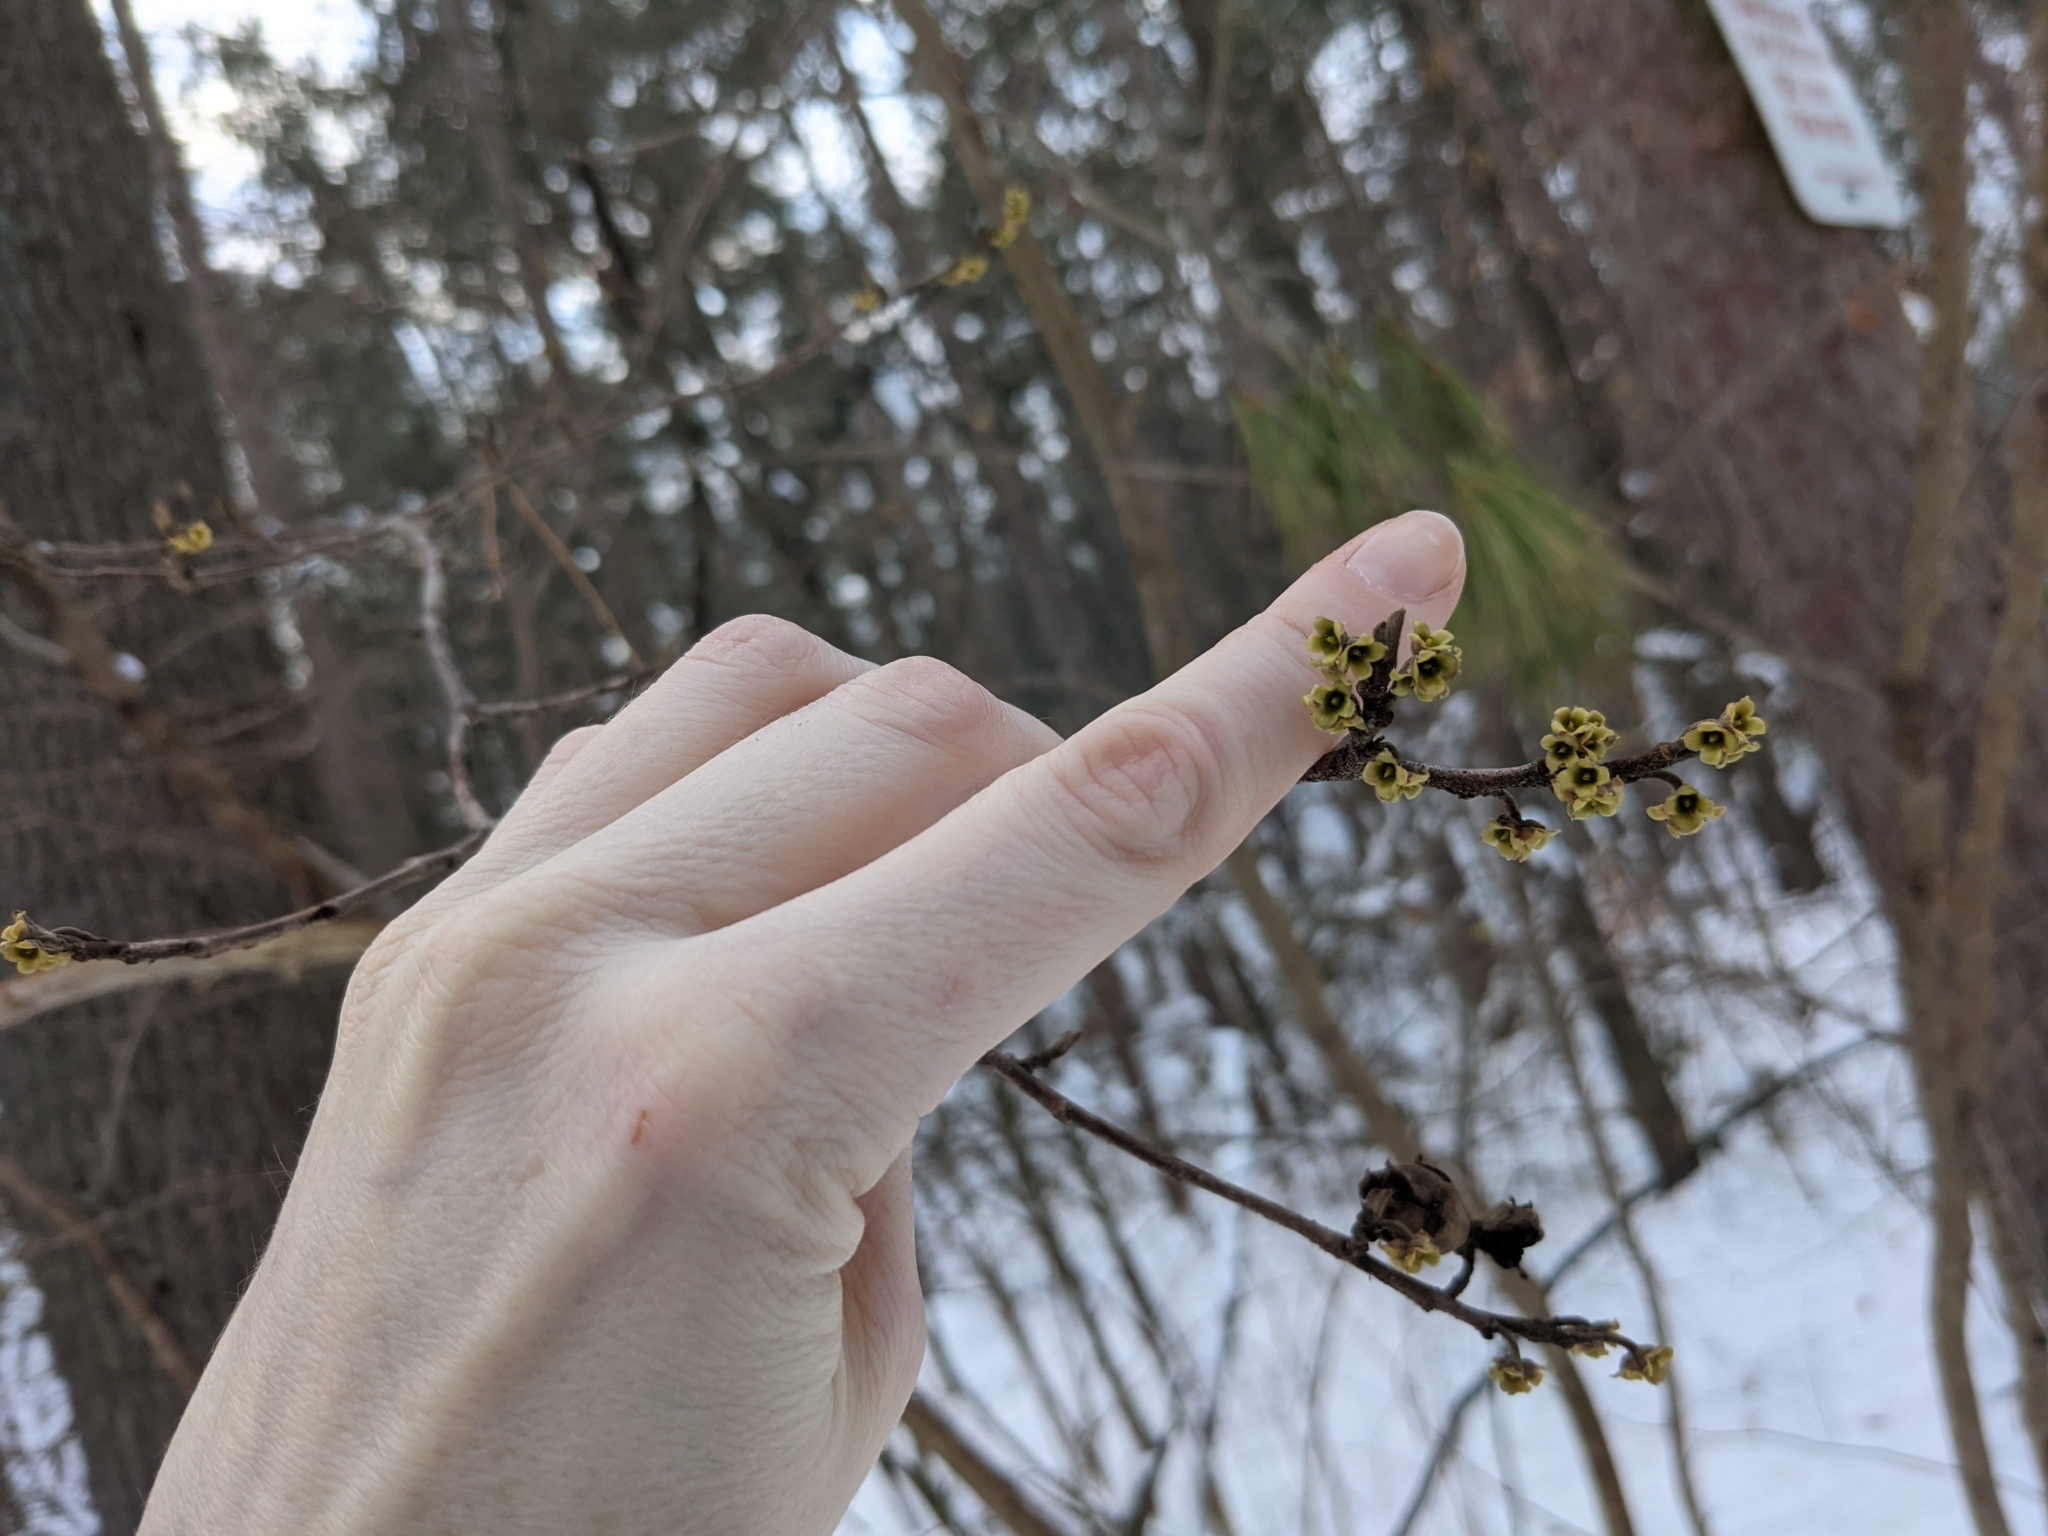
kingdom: Plantae
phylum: Tracheophyta
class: Magnoliopsida
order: Saxifragales
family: Hamamelidaceae
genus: Hamamelis
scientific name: Hamamelis virginiana
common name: Witch-hazel
